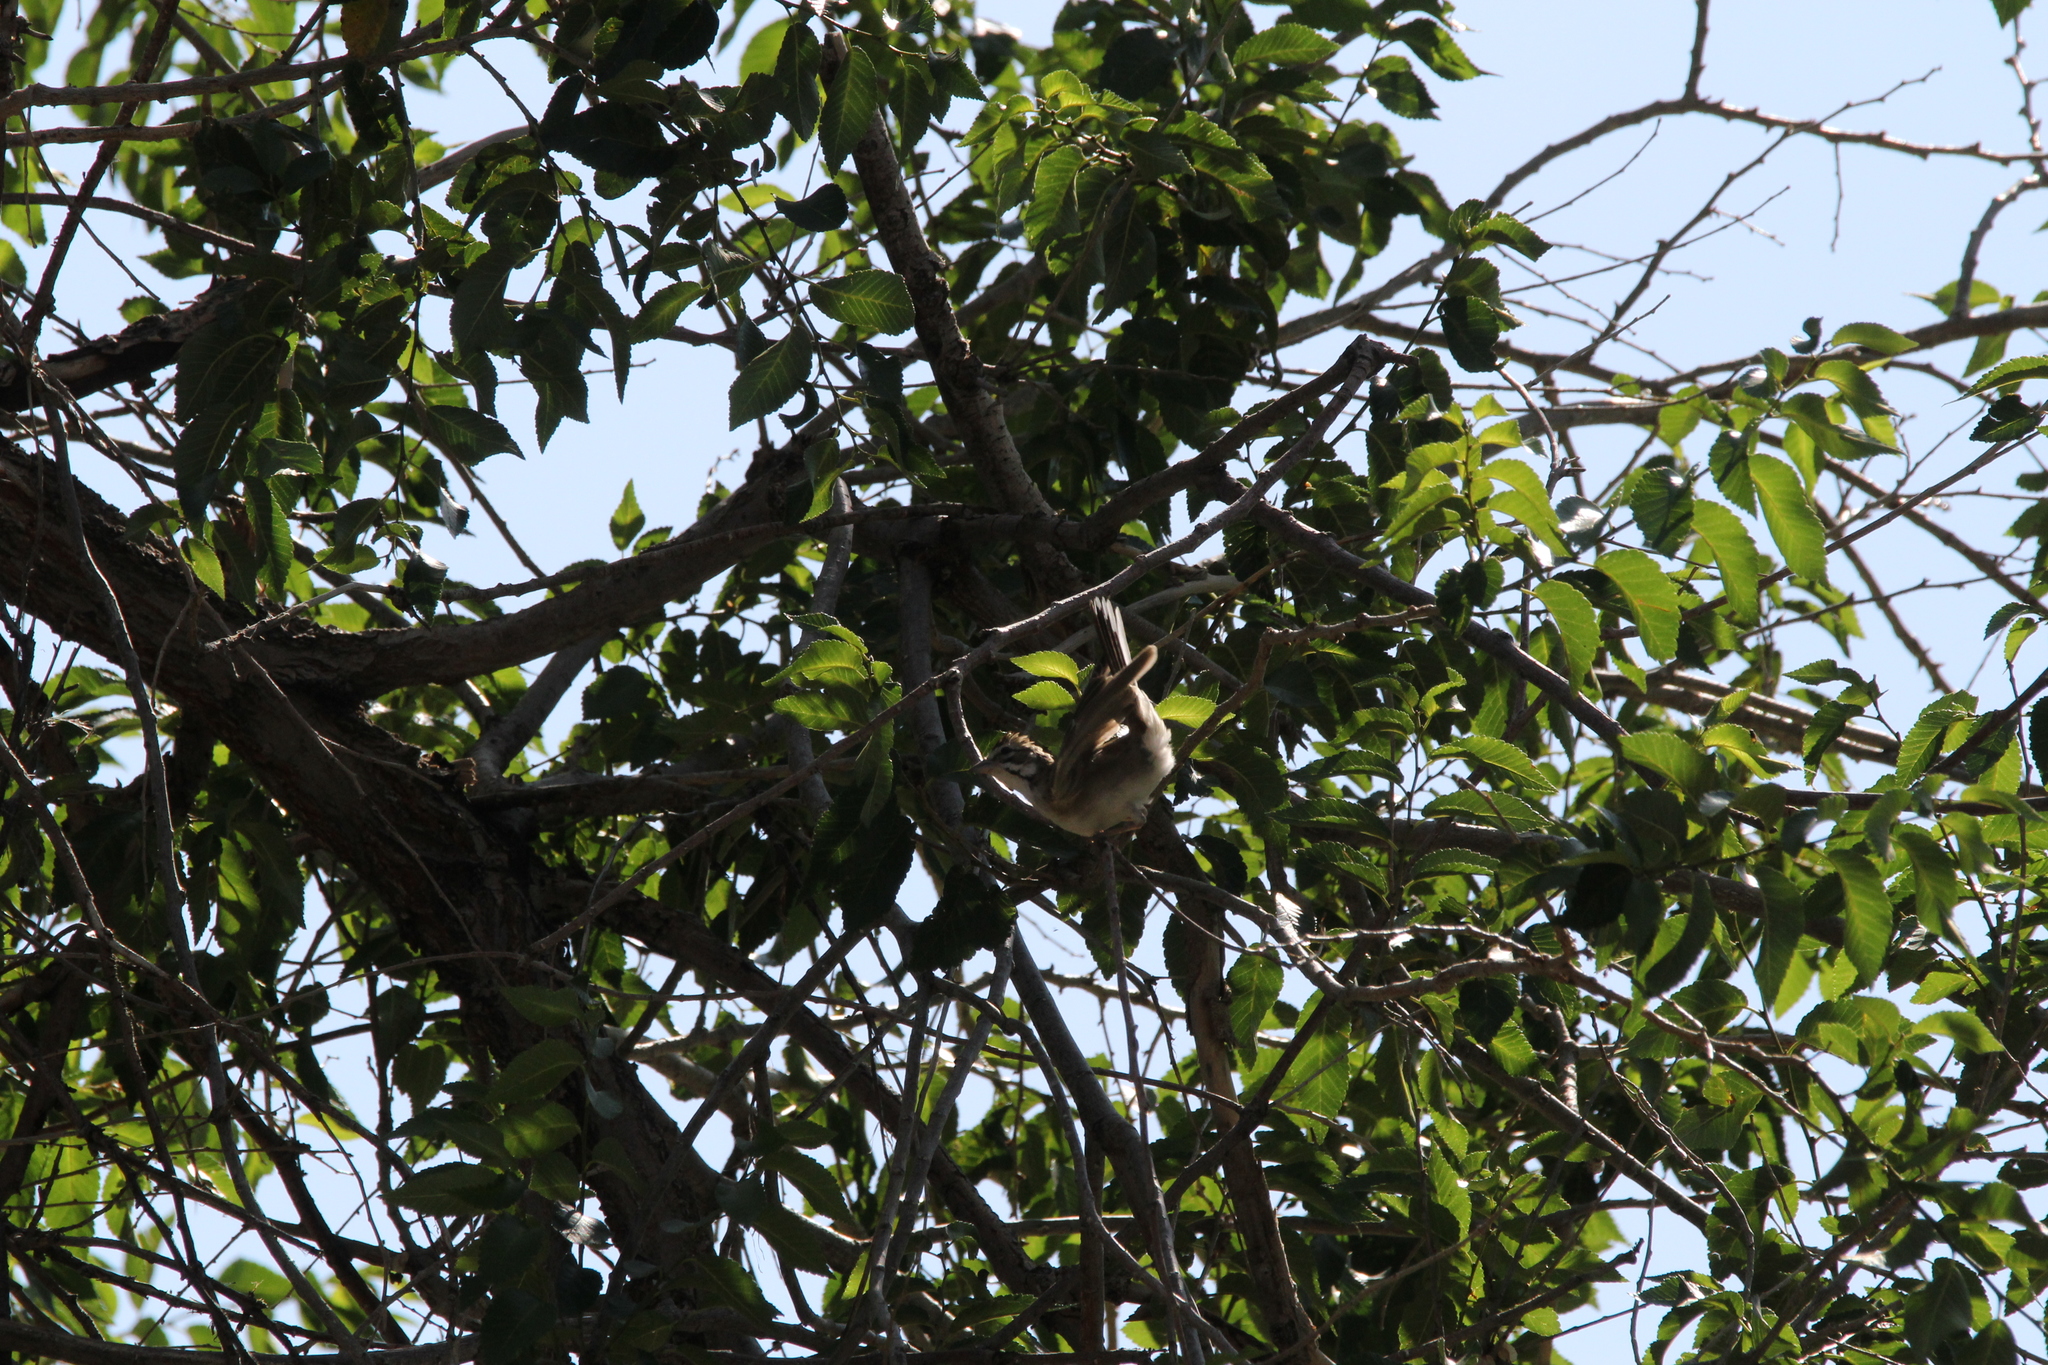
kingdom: Animalia
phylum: Chordata
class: Aves
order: Passeriformes
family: Passerellidae
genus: Chondestes
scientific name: Chondestes grammacus
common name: Lark sparrow
